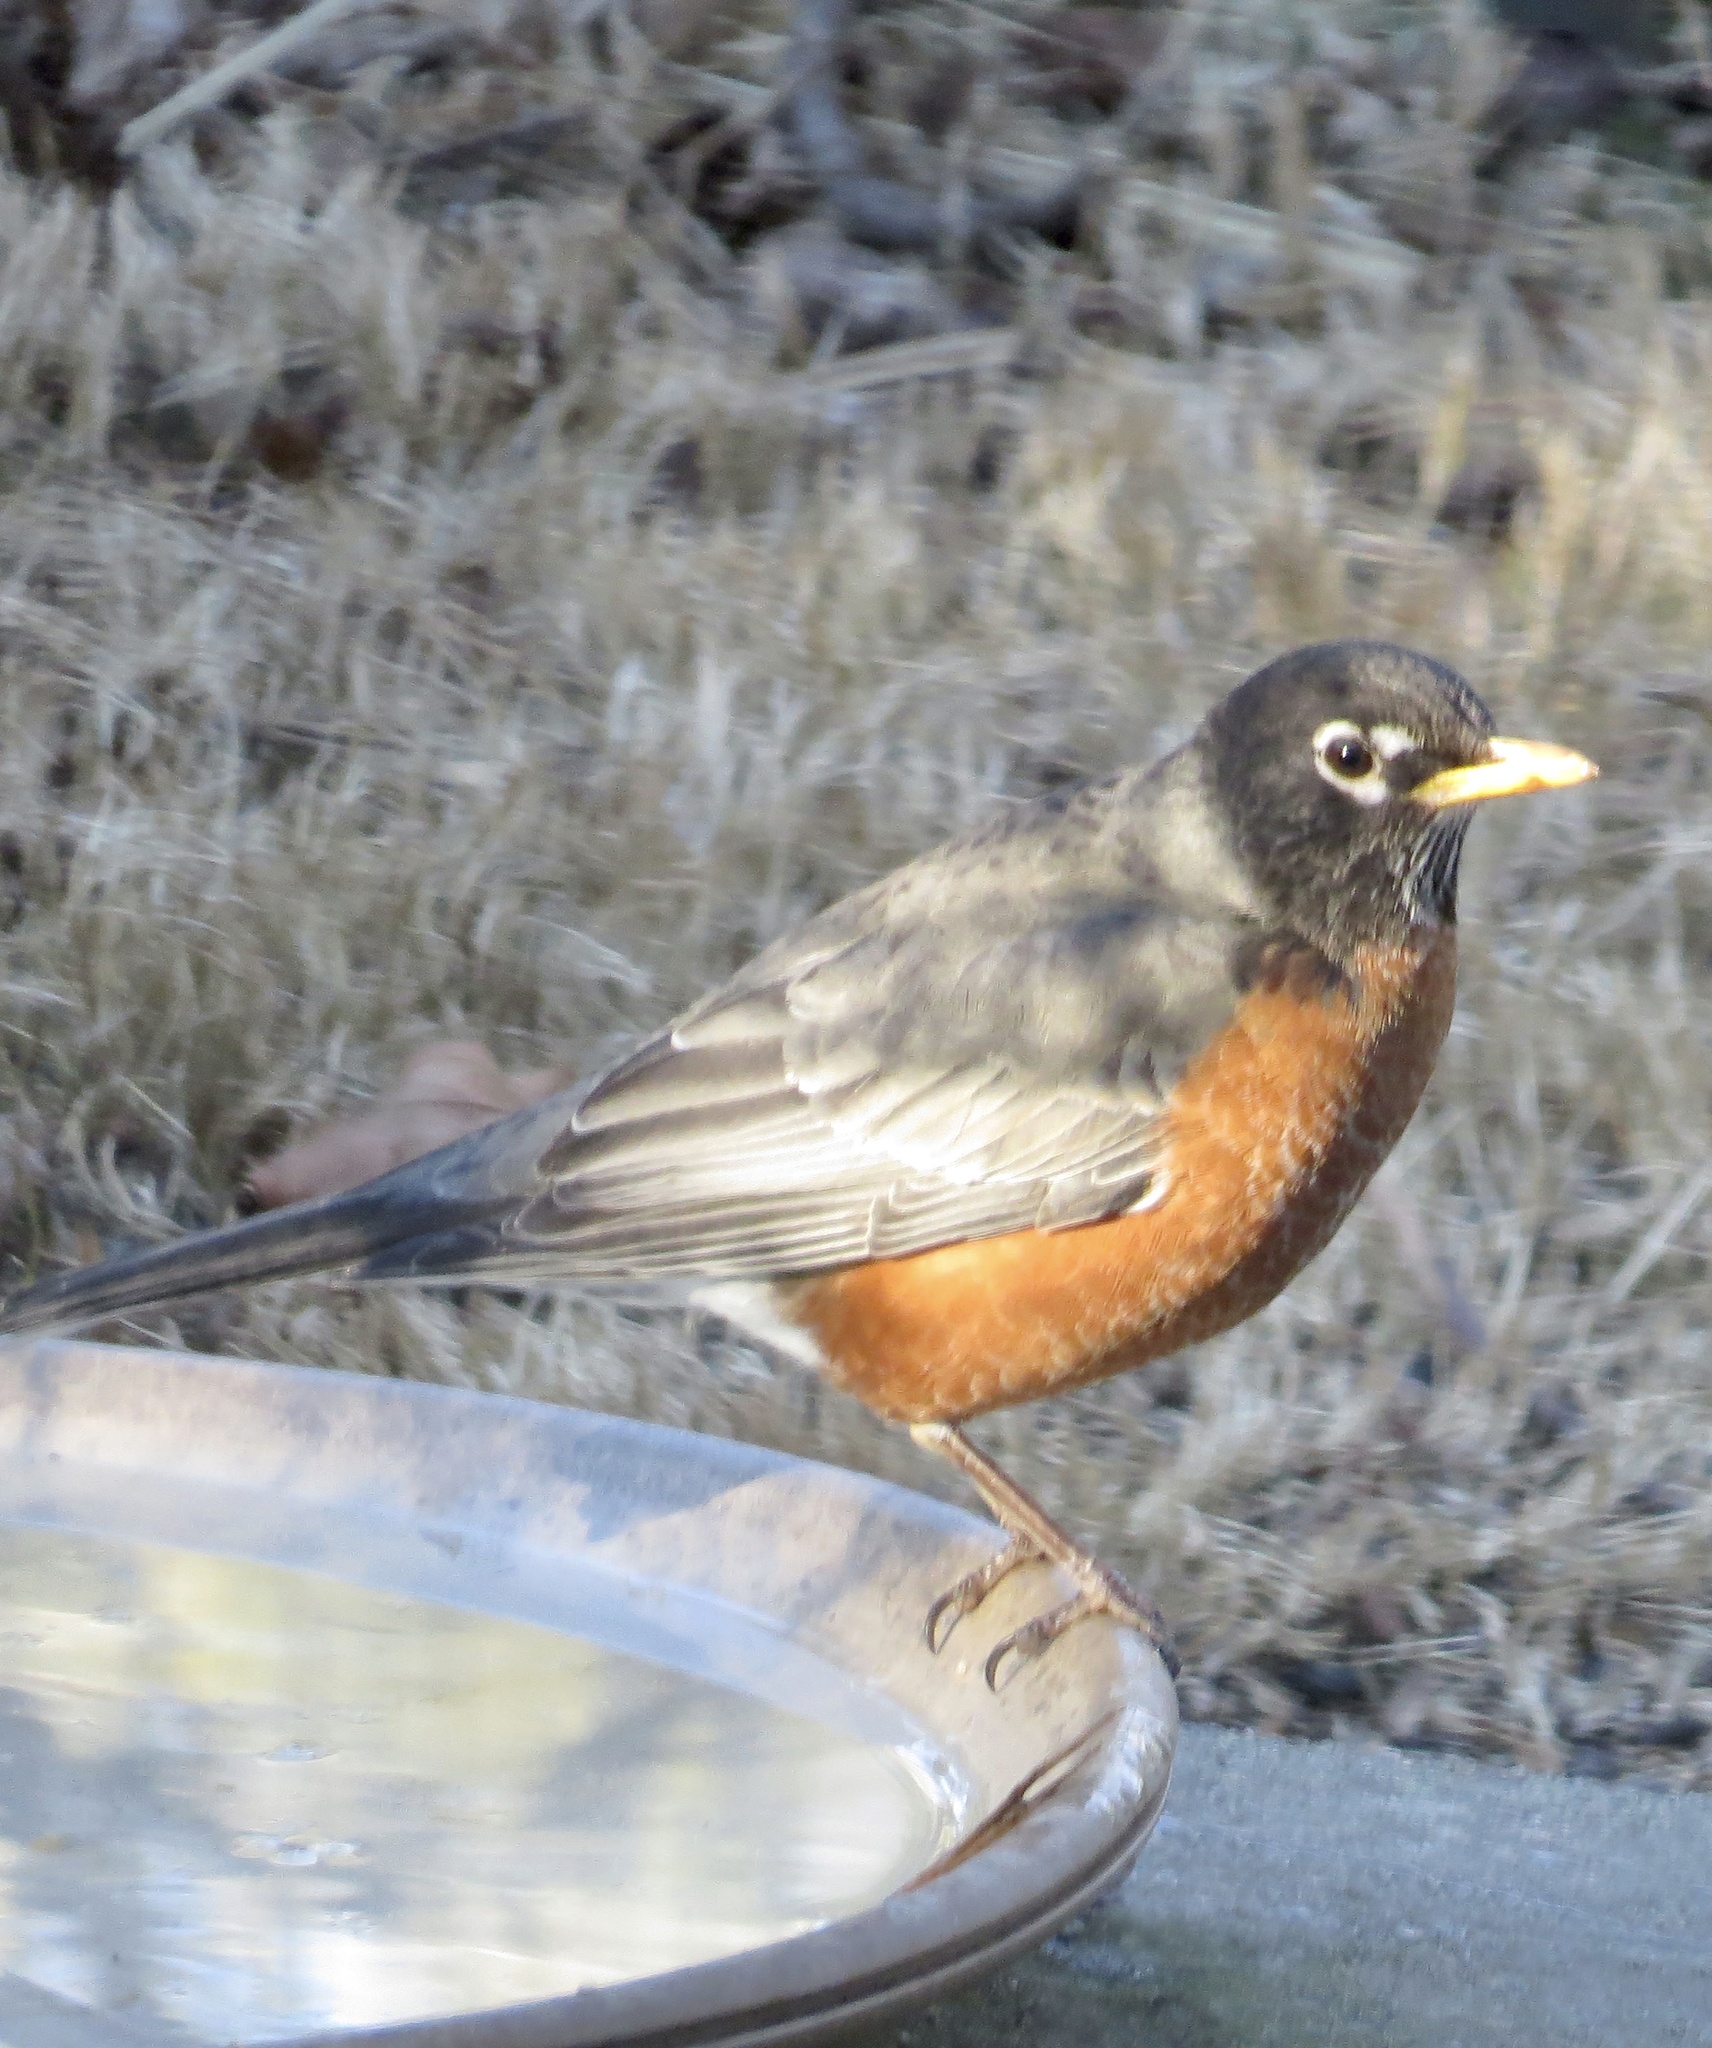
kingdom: Animalia
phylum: Chordata
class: Aves
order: Passeriformes
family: Turdidae
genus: Turdus
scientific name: Turdus migratorius
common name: American robin
